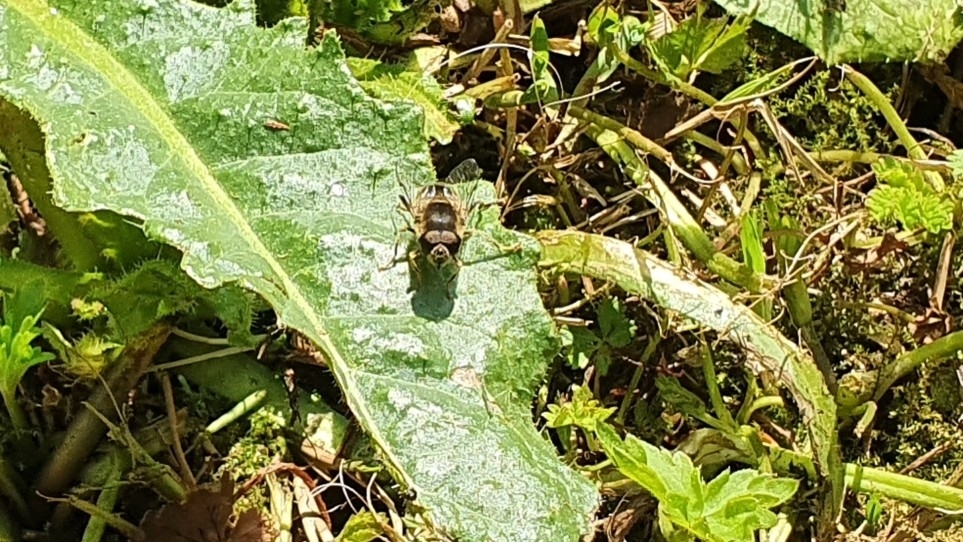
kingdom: Animalia
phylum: Arthropoda
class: Insecta
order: Diptera
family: Syrphidae
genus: Eristalis
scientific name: Eristalis pertinax
